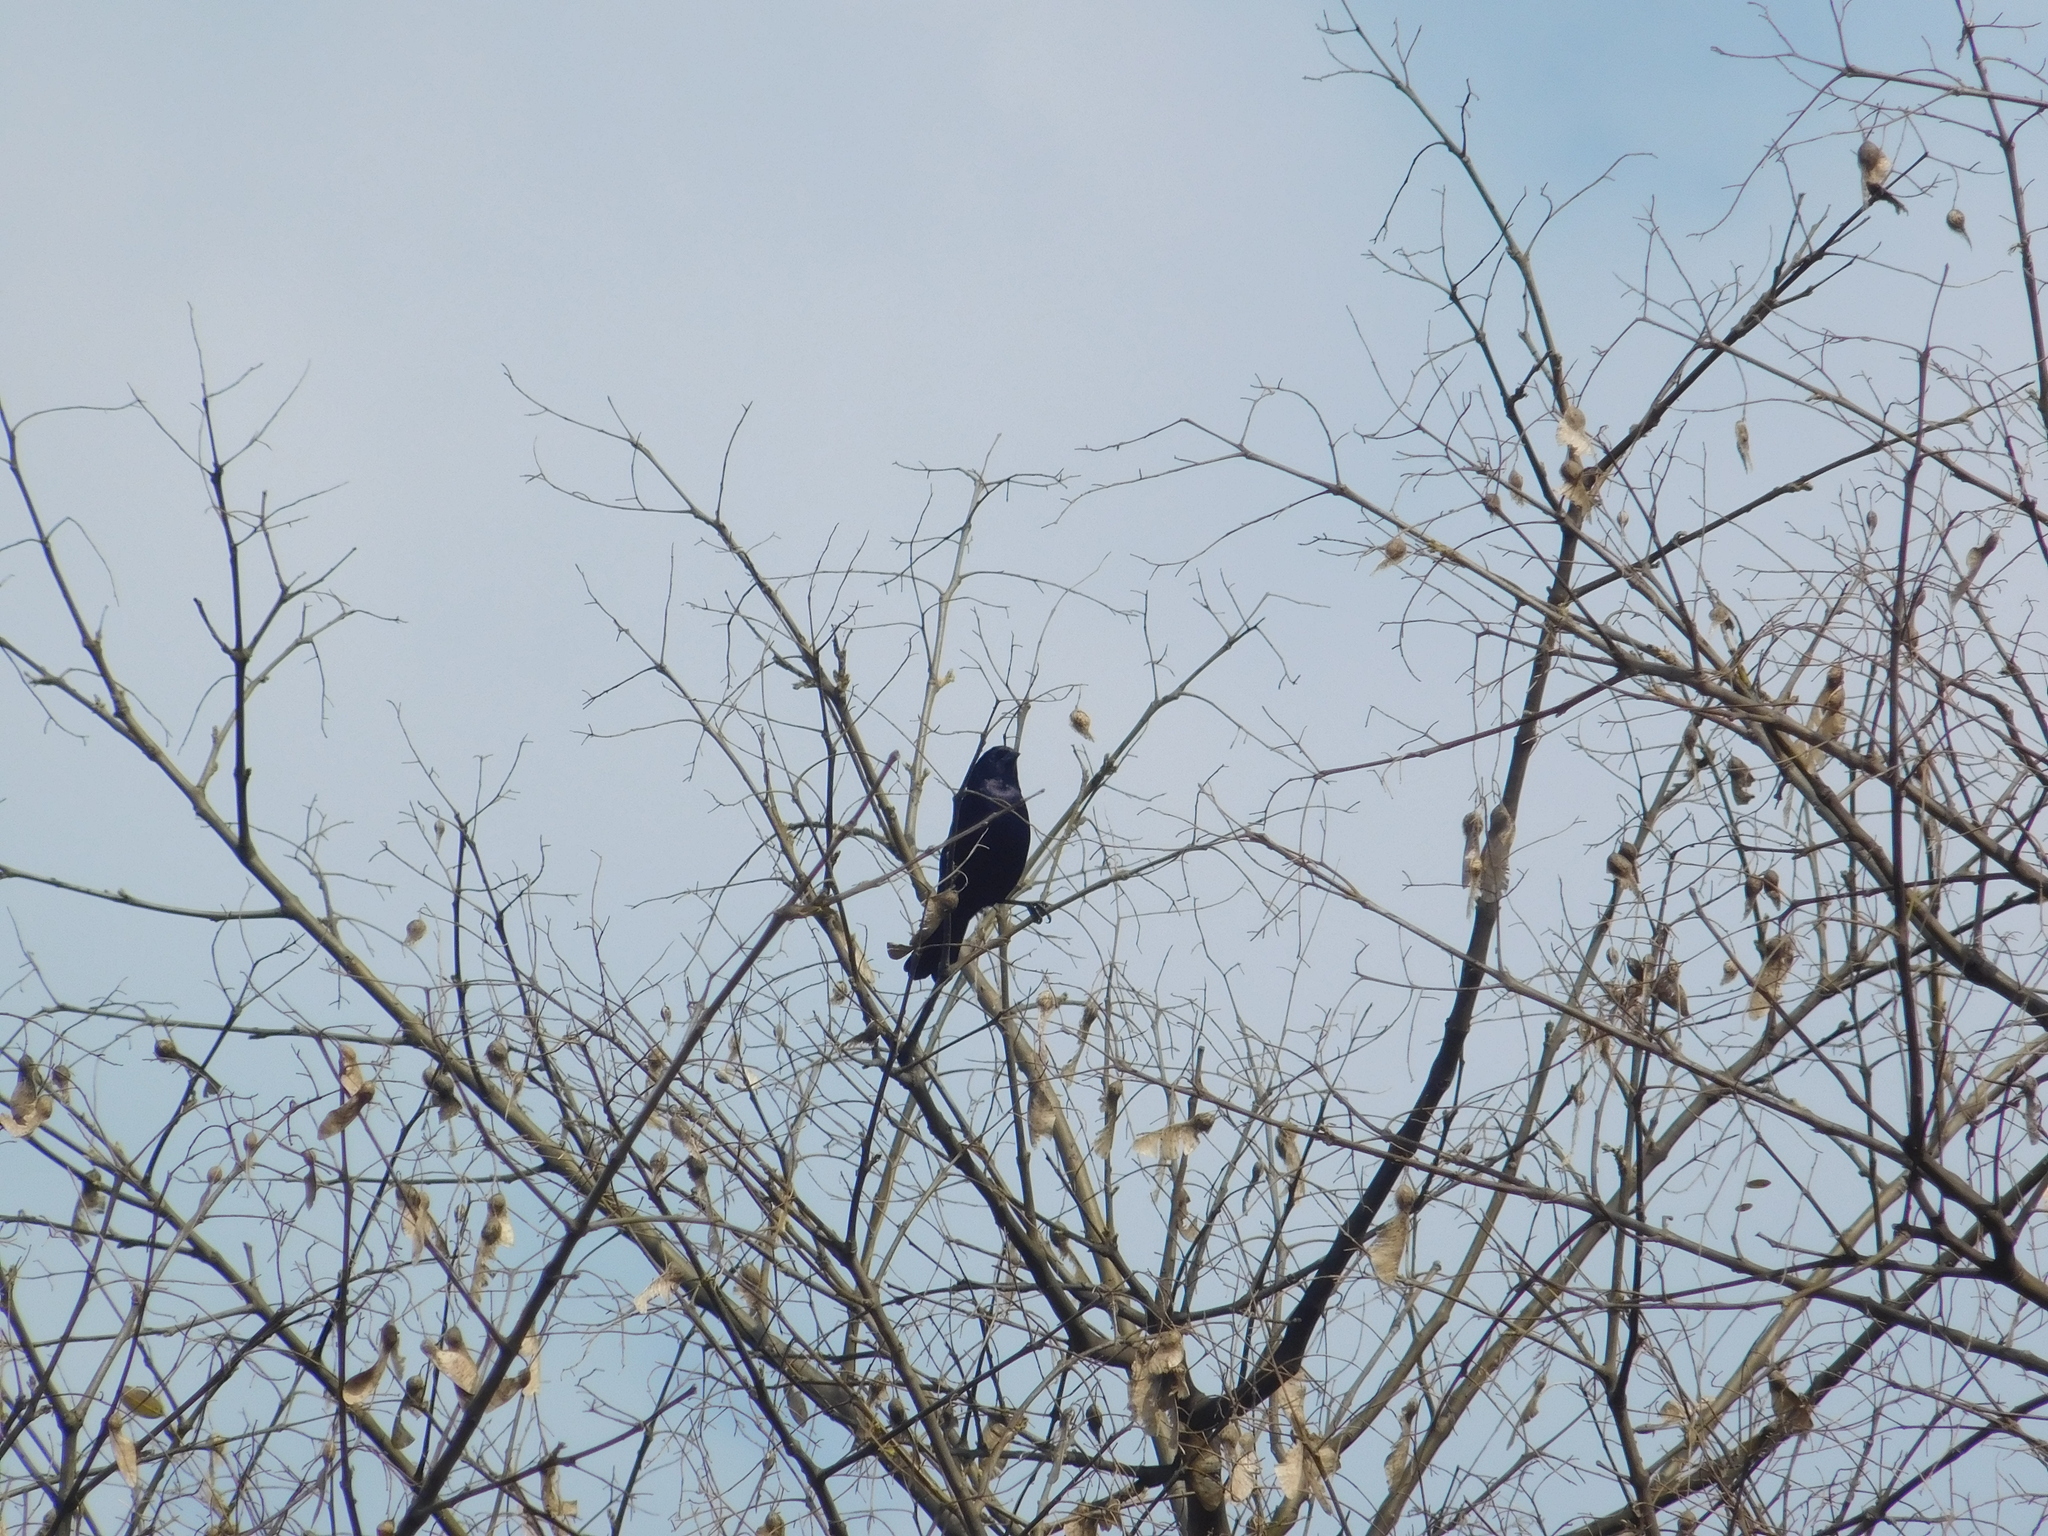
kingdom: Animalia
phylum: Chordata
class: Aves
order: Passeriformes
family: Icteridae
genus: Molothrus
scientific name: Molothrus bonariensis
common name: Shiny cowbird
